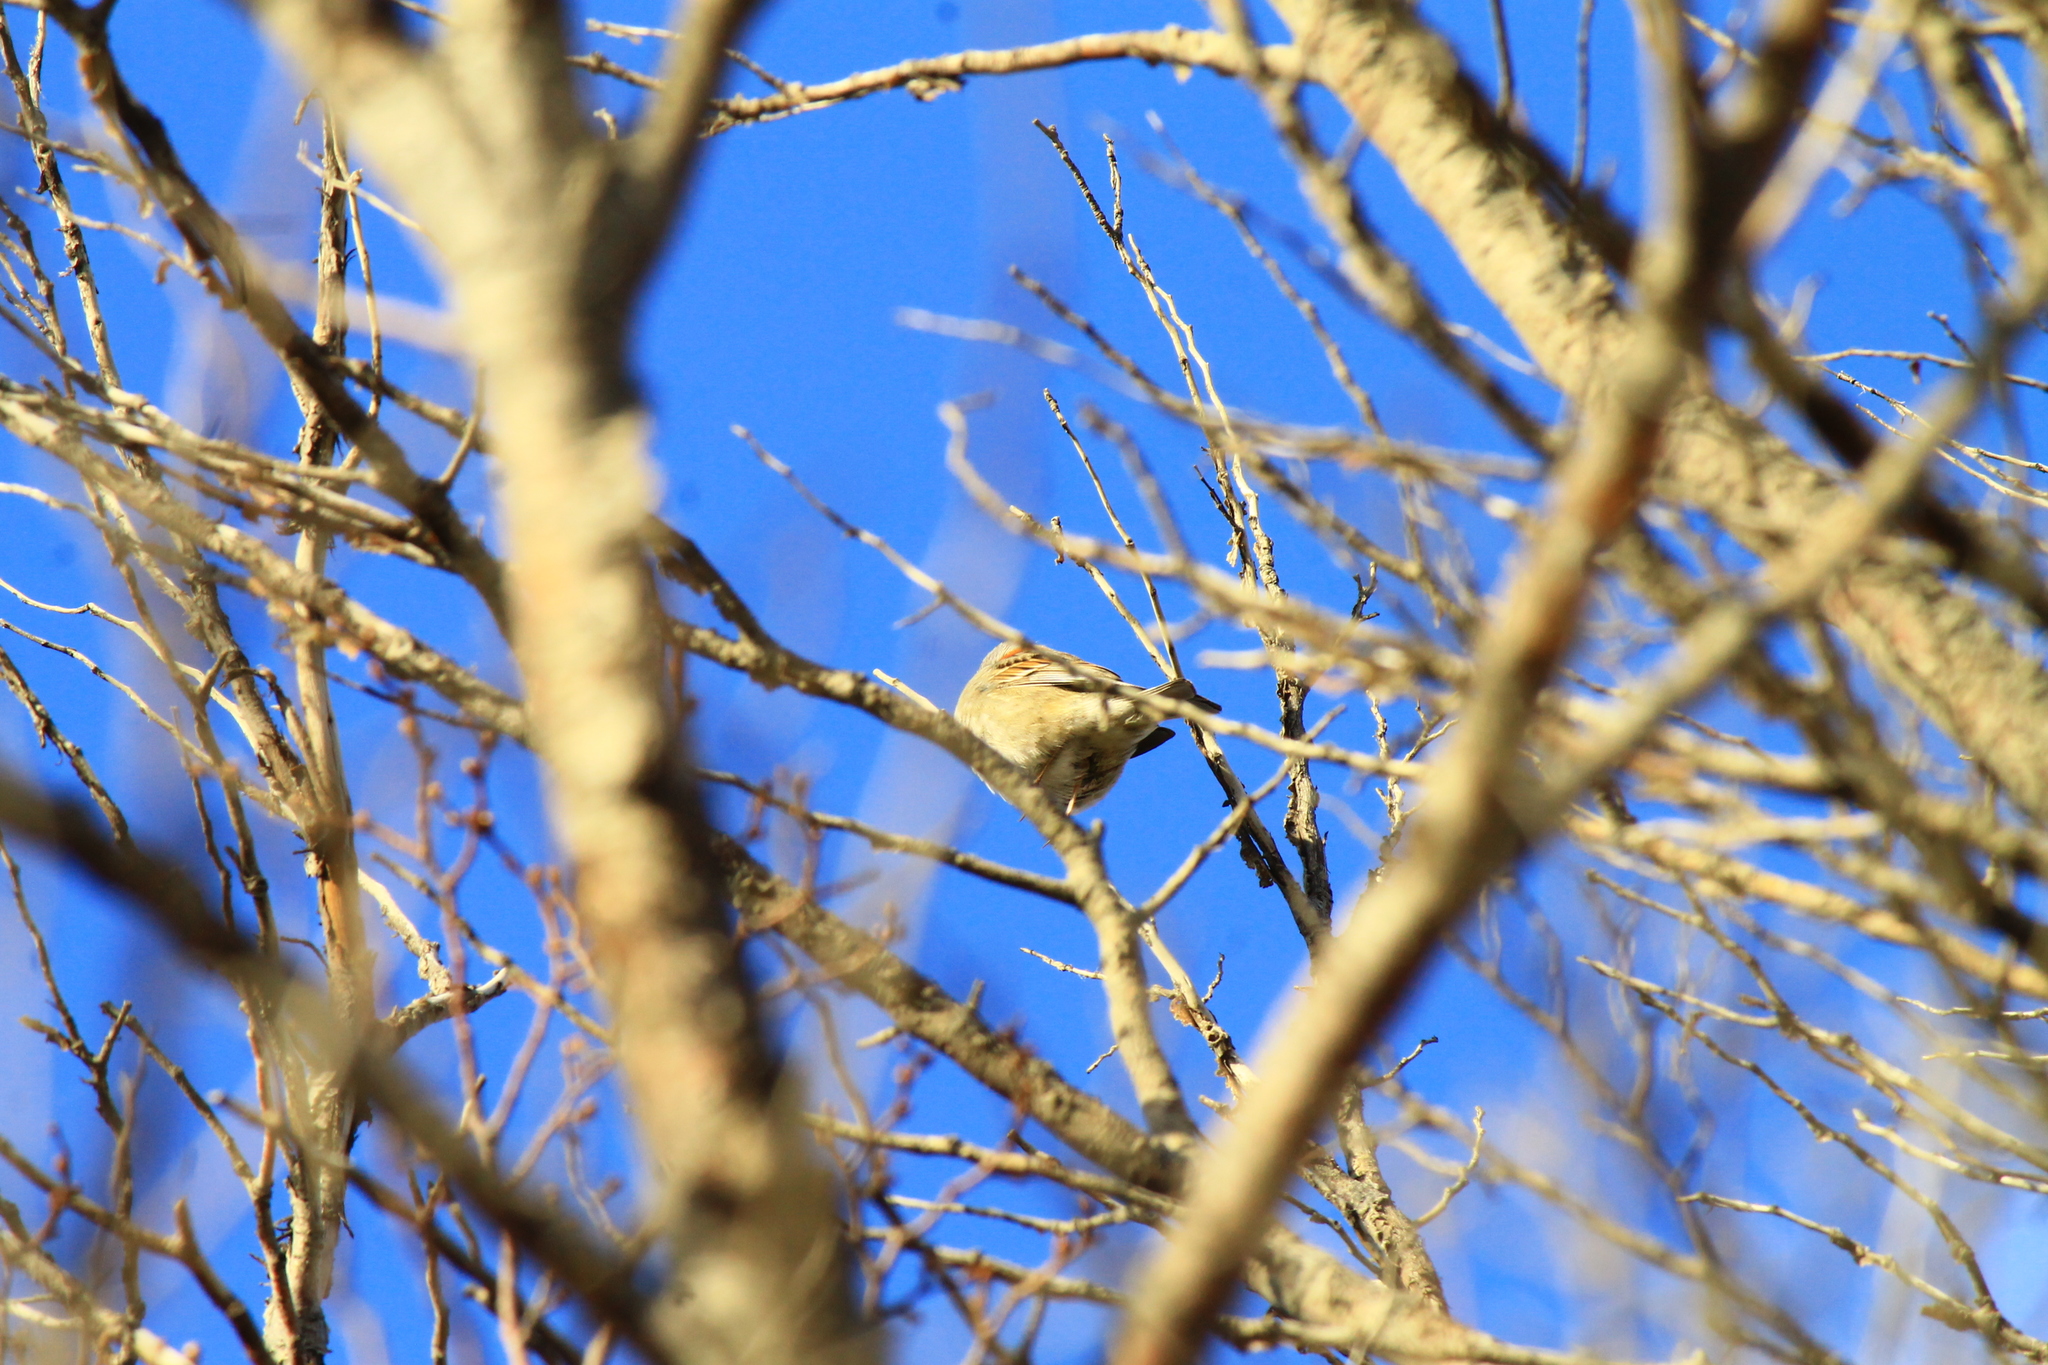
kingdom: Animalia
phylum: Chordata
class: Aves
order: Passeriformes
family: Passerellidae
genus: Zonotrichia
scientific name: Zonotrichia capensis
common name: Rufous-collared sparrow
